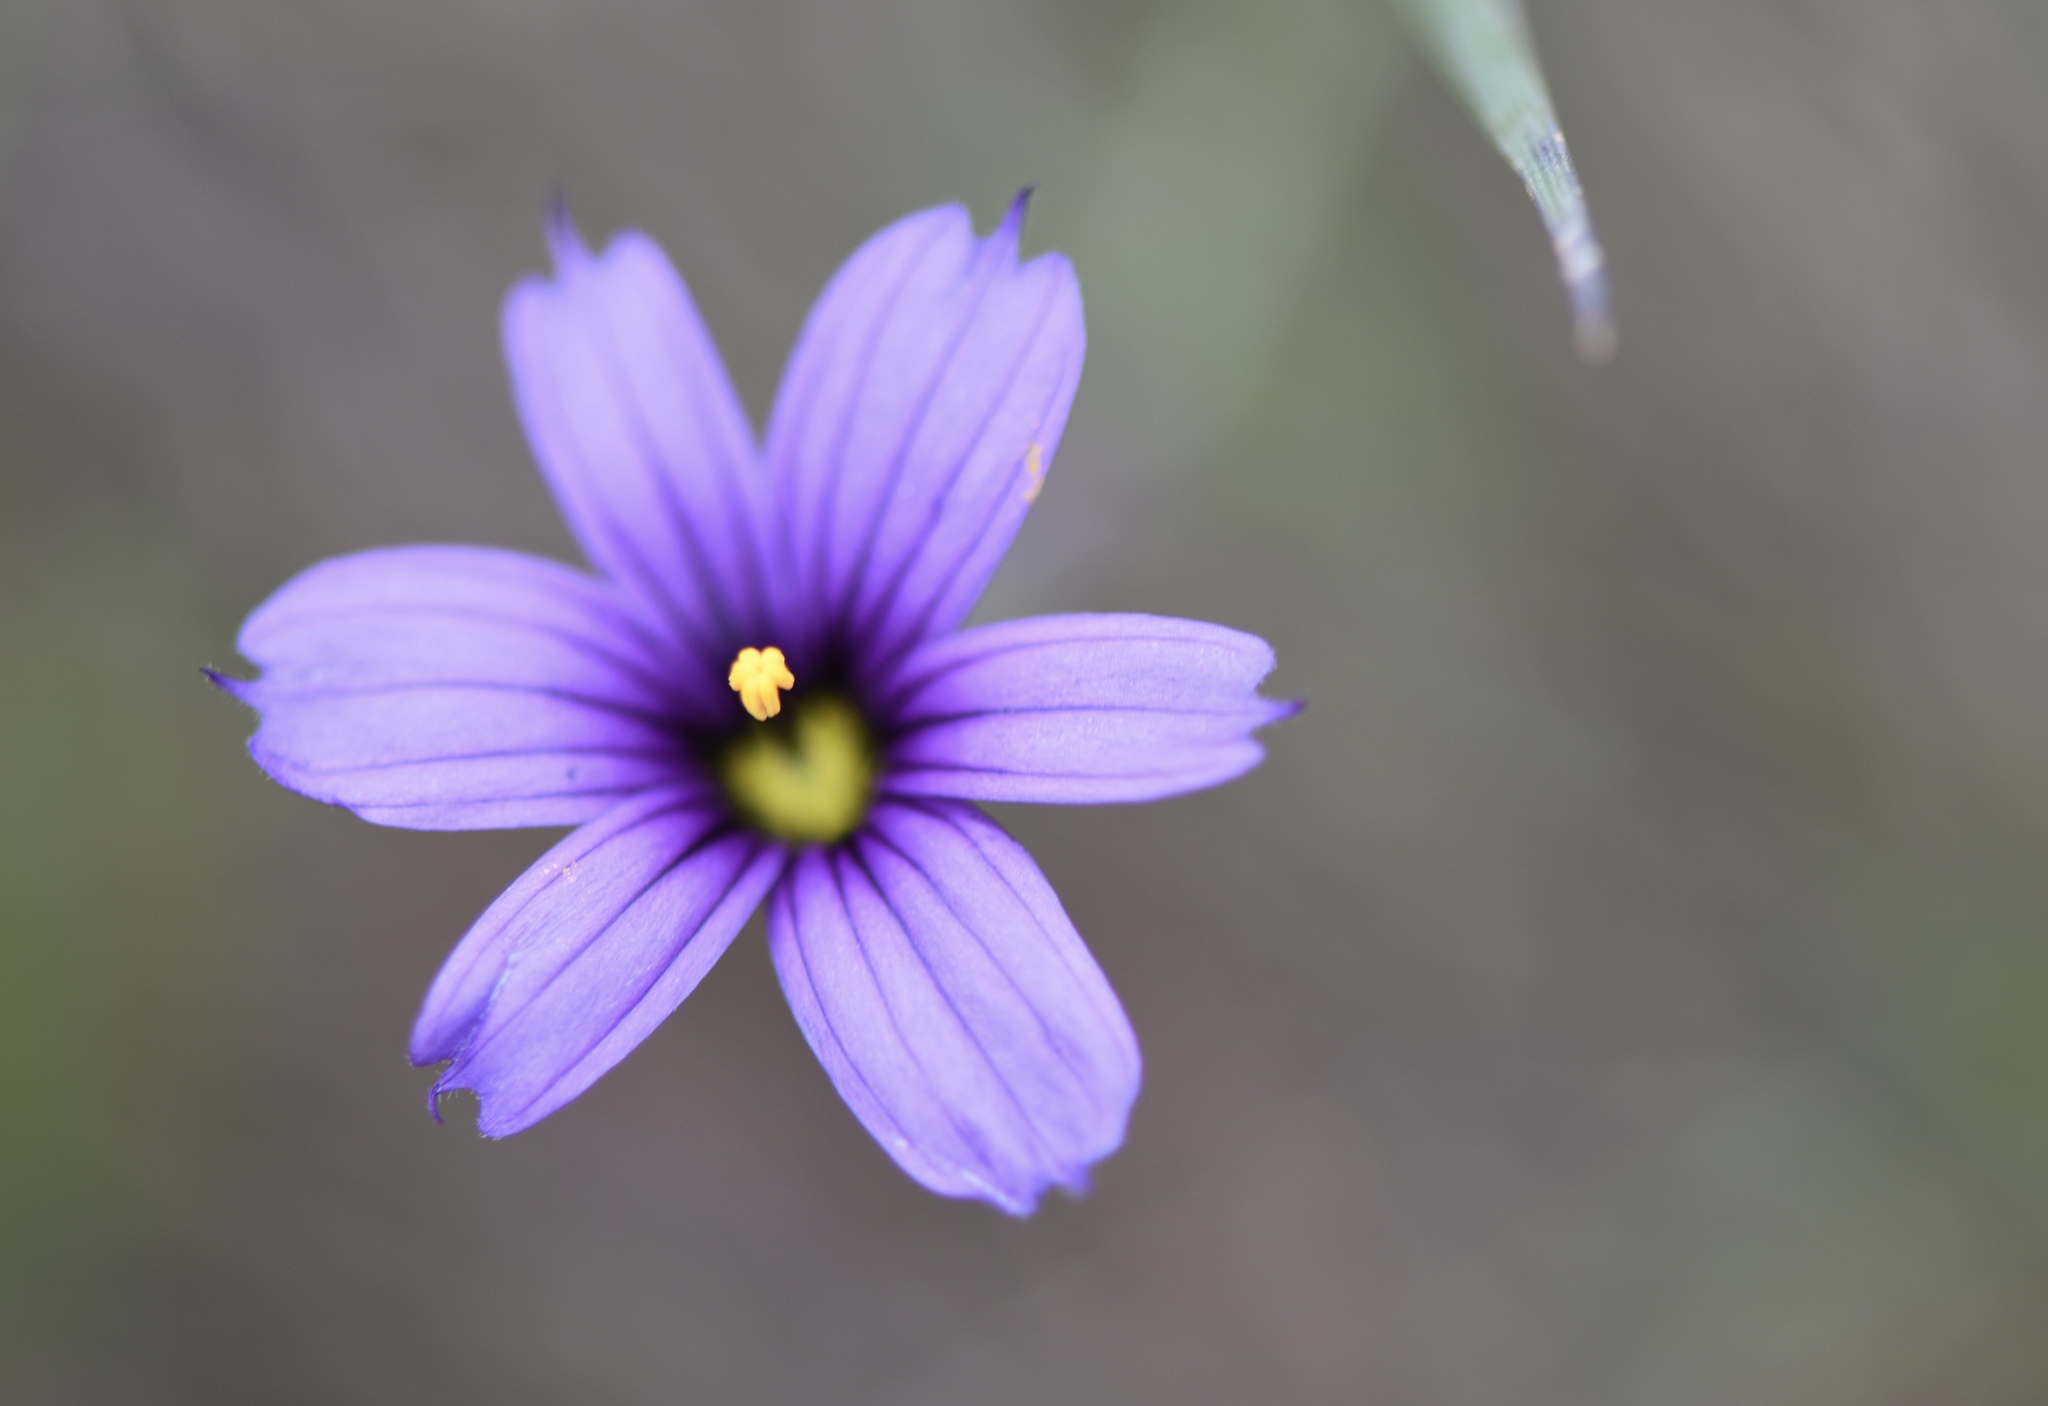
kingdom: Plantae
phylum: Tracheophyta
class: Liliopsida
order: Asparagales
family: Iridaceae
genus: Sisyrinchium
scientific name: Sisyrinchium bellum
